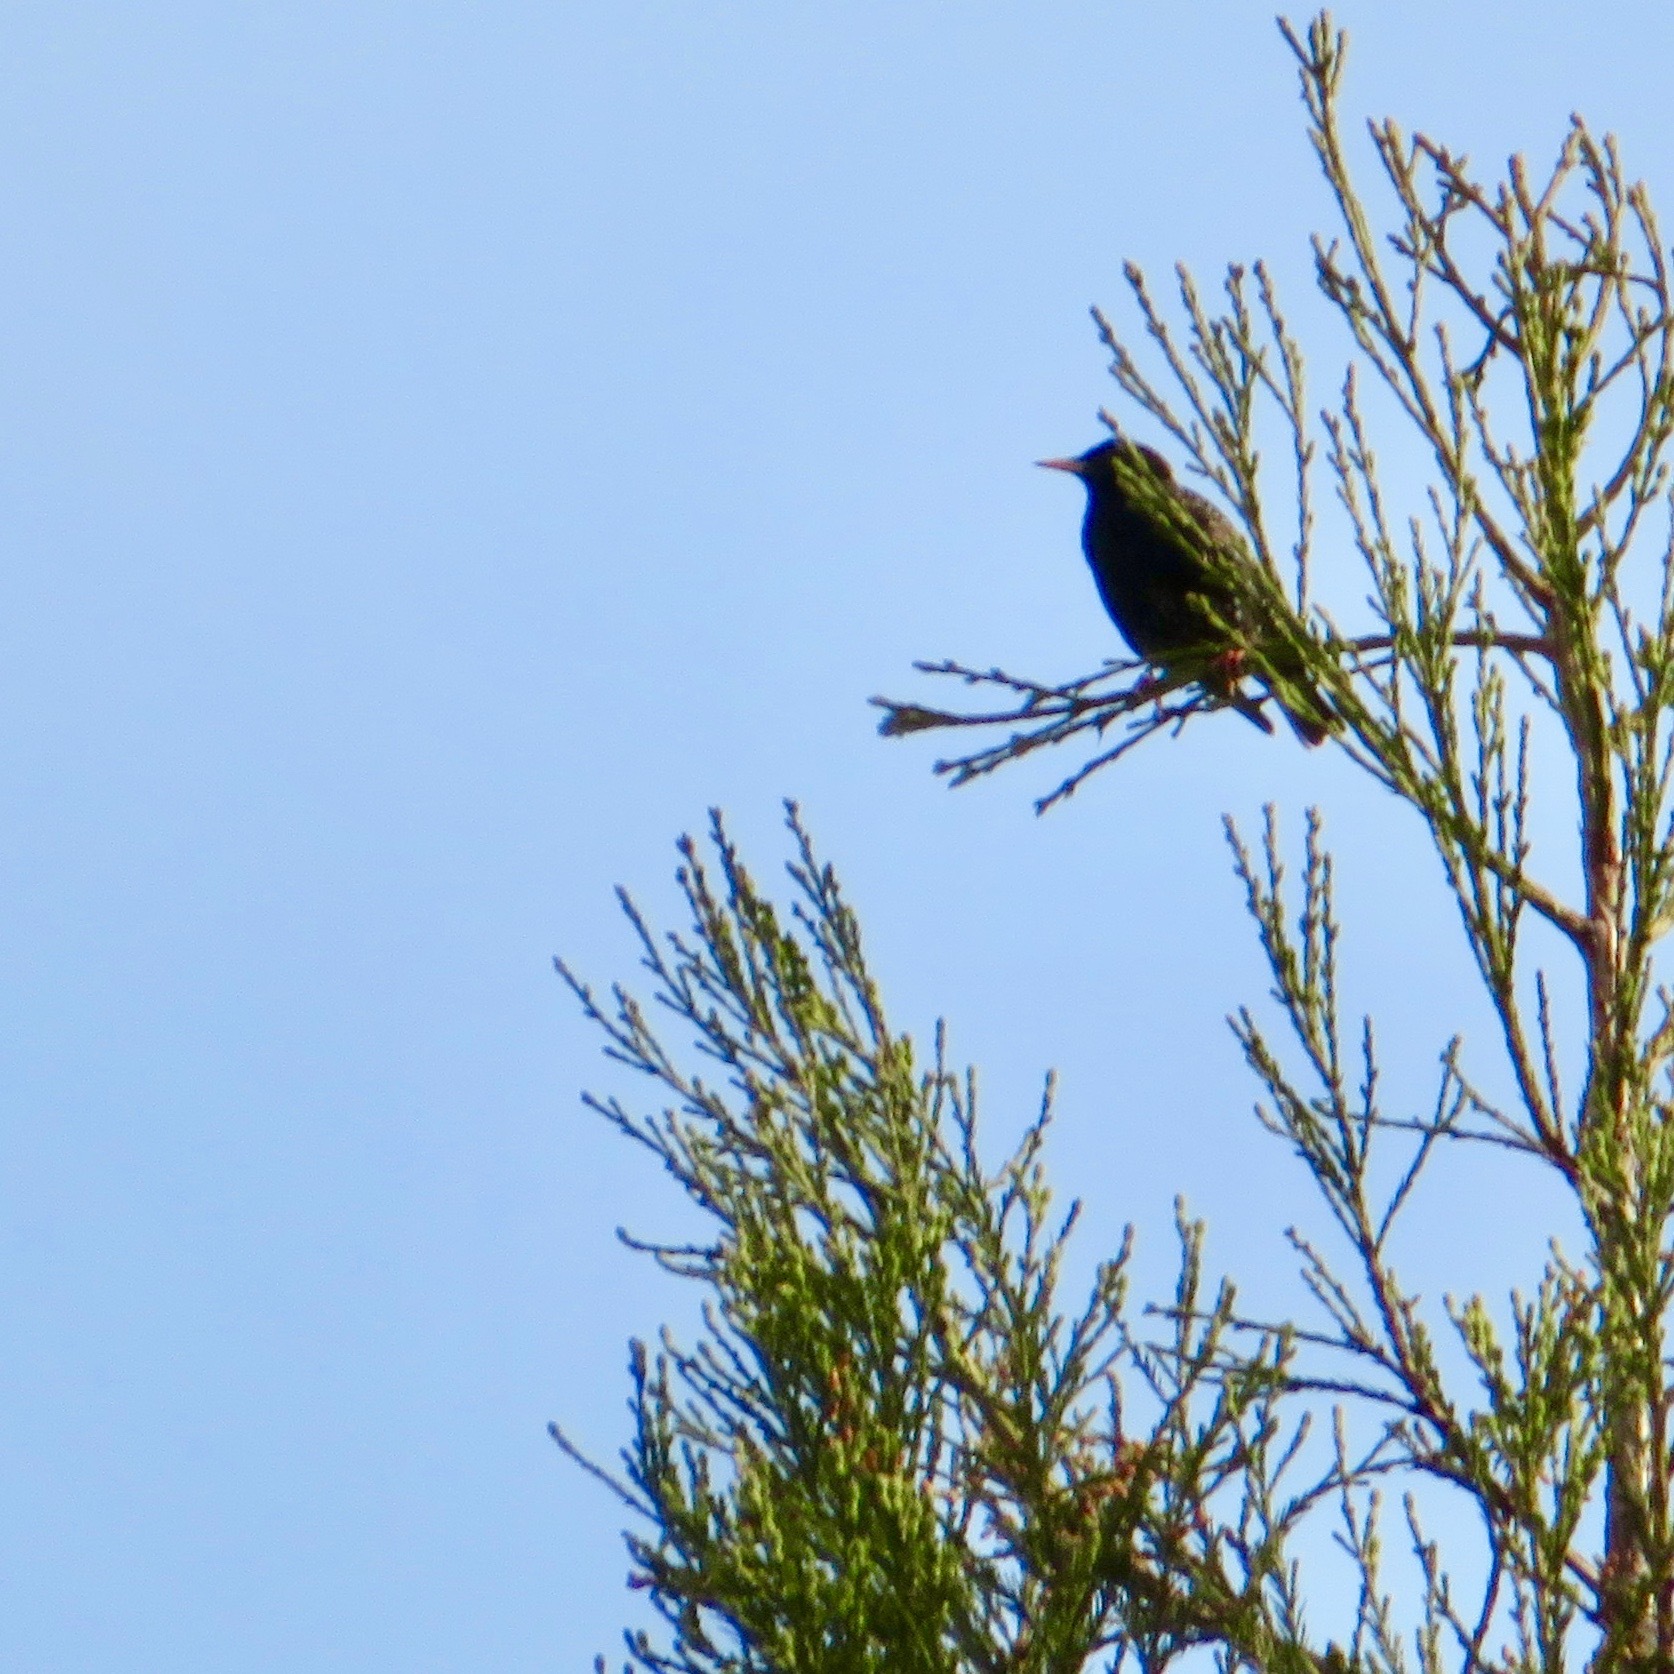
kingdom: Animalia
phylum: Chordata
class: Aves
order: Passeriformes
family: Sturnidae
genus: Sturnus
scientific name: Sturnus vulgaris
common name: Common starling
